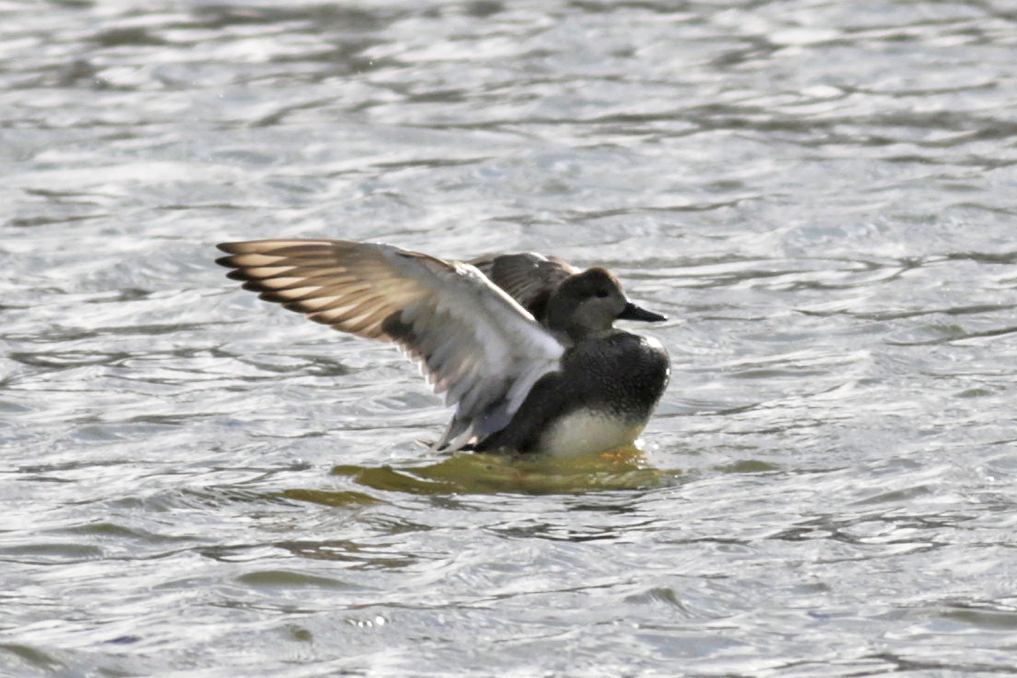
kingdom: Animalia
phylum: Chordata
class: Aves
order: Anseriformes
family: Anatidae
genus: Mareca
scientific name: Mareca strepera
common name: Gadwall
